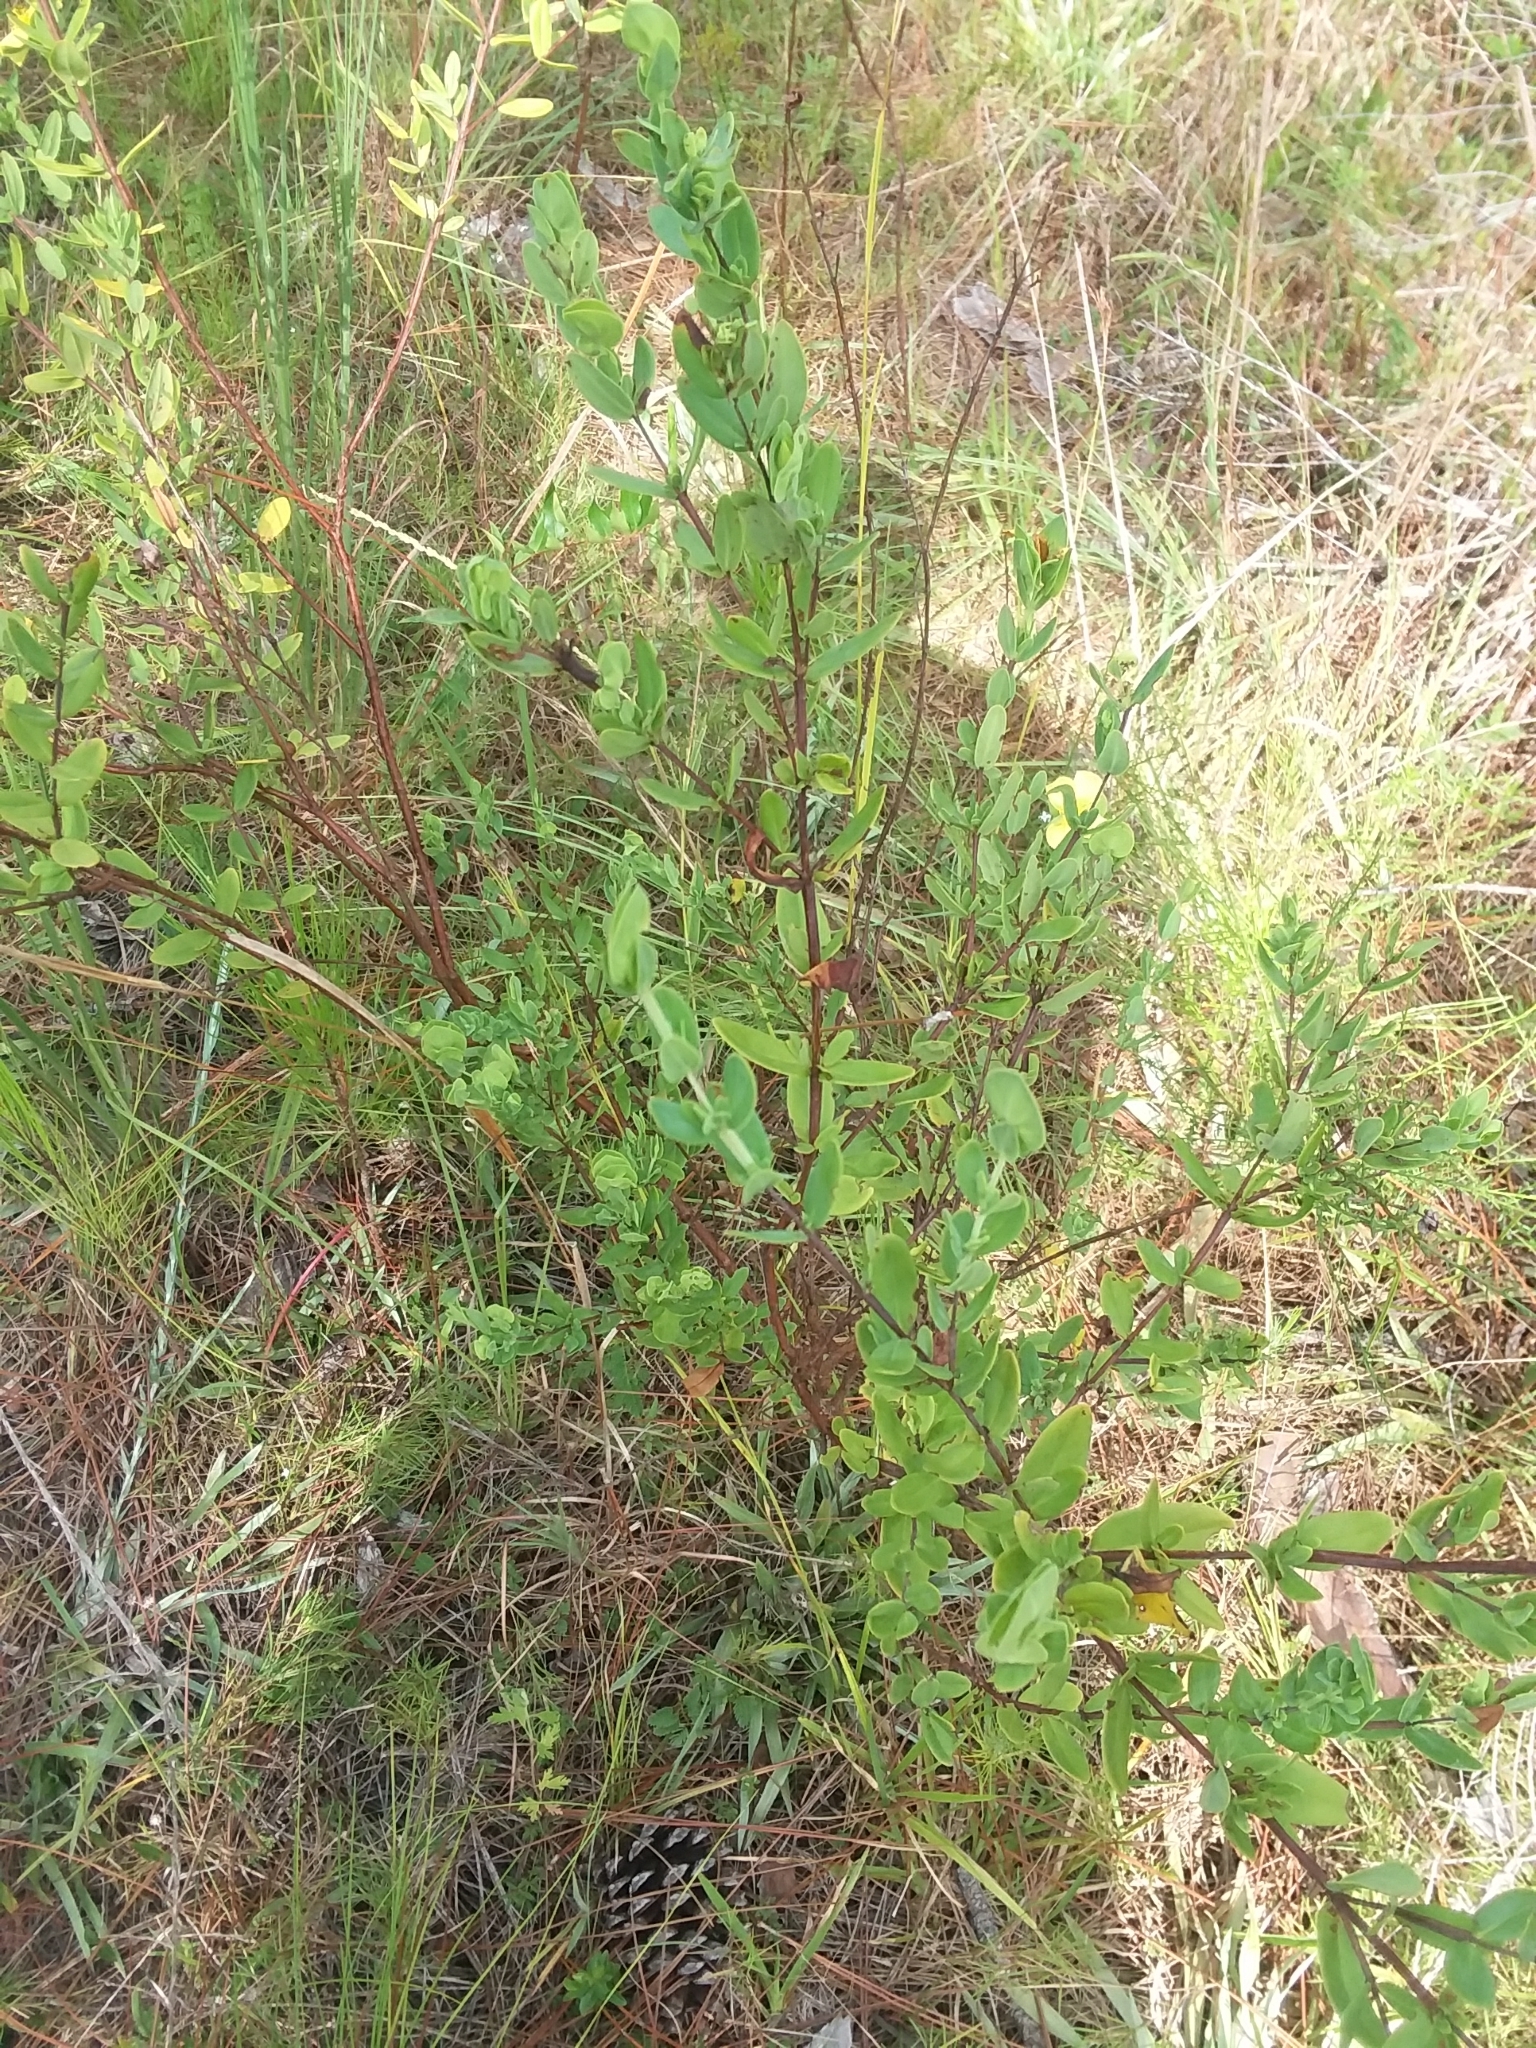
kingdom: Plantae
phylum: Tracheophyta
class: Magnoliopsida
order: Malpighiales
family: Hypericaceae
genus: Hypericum
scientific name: Hypericum crux-andreae
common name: St.-peter's-wort
